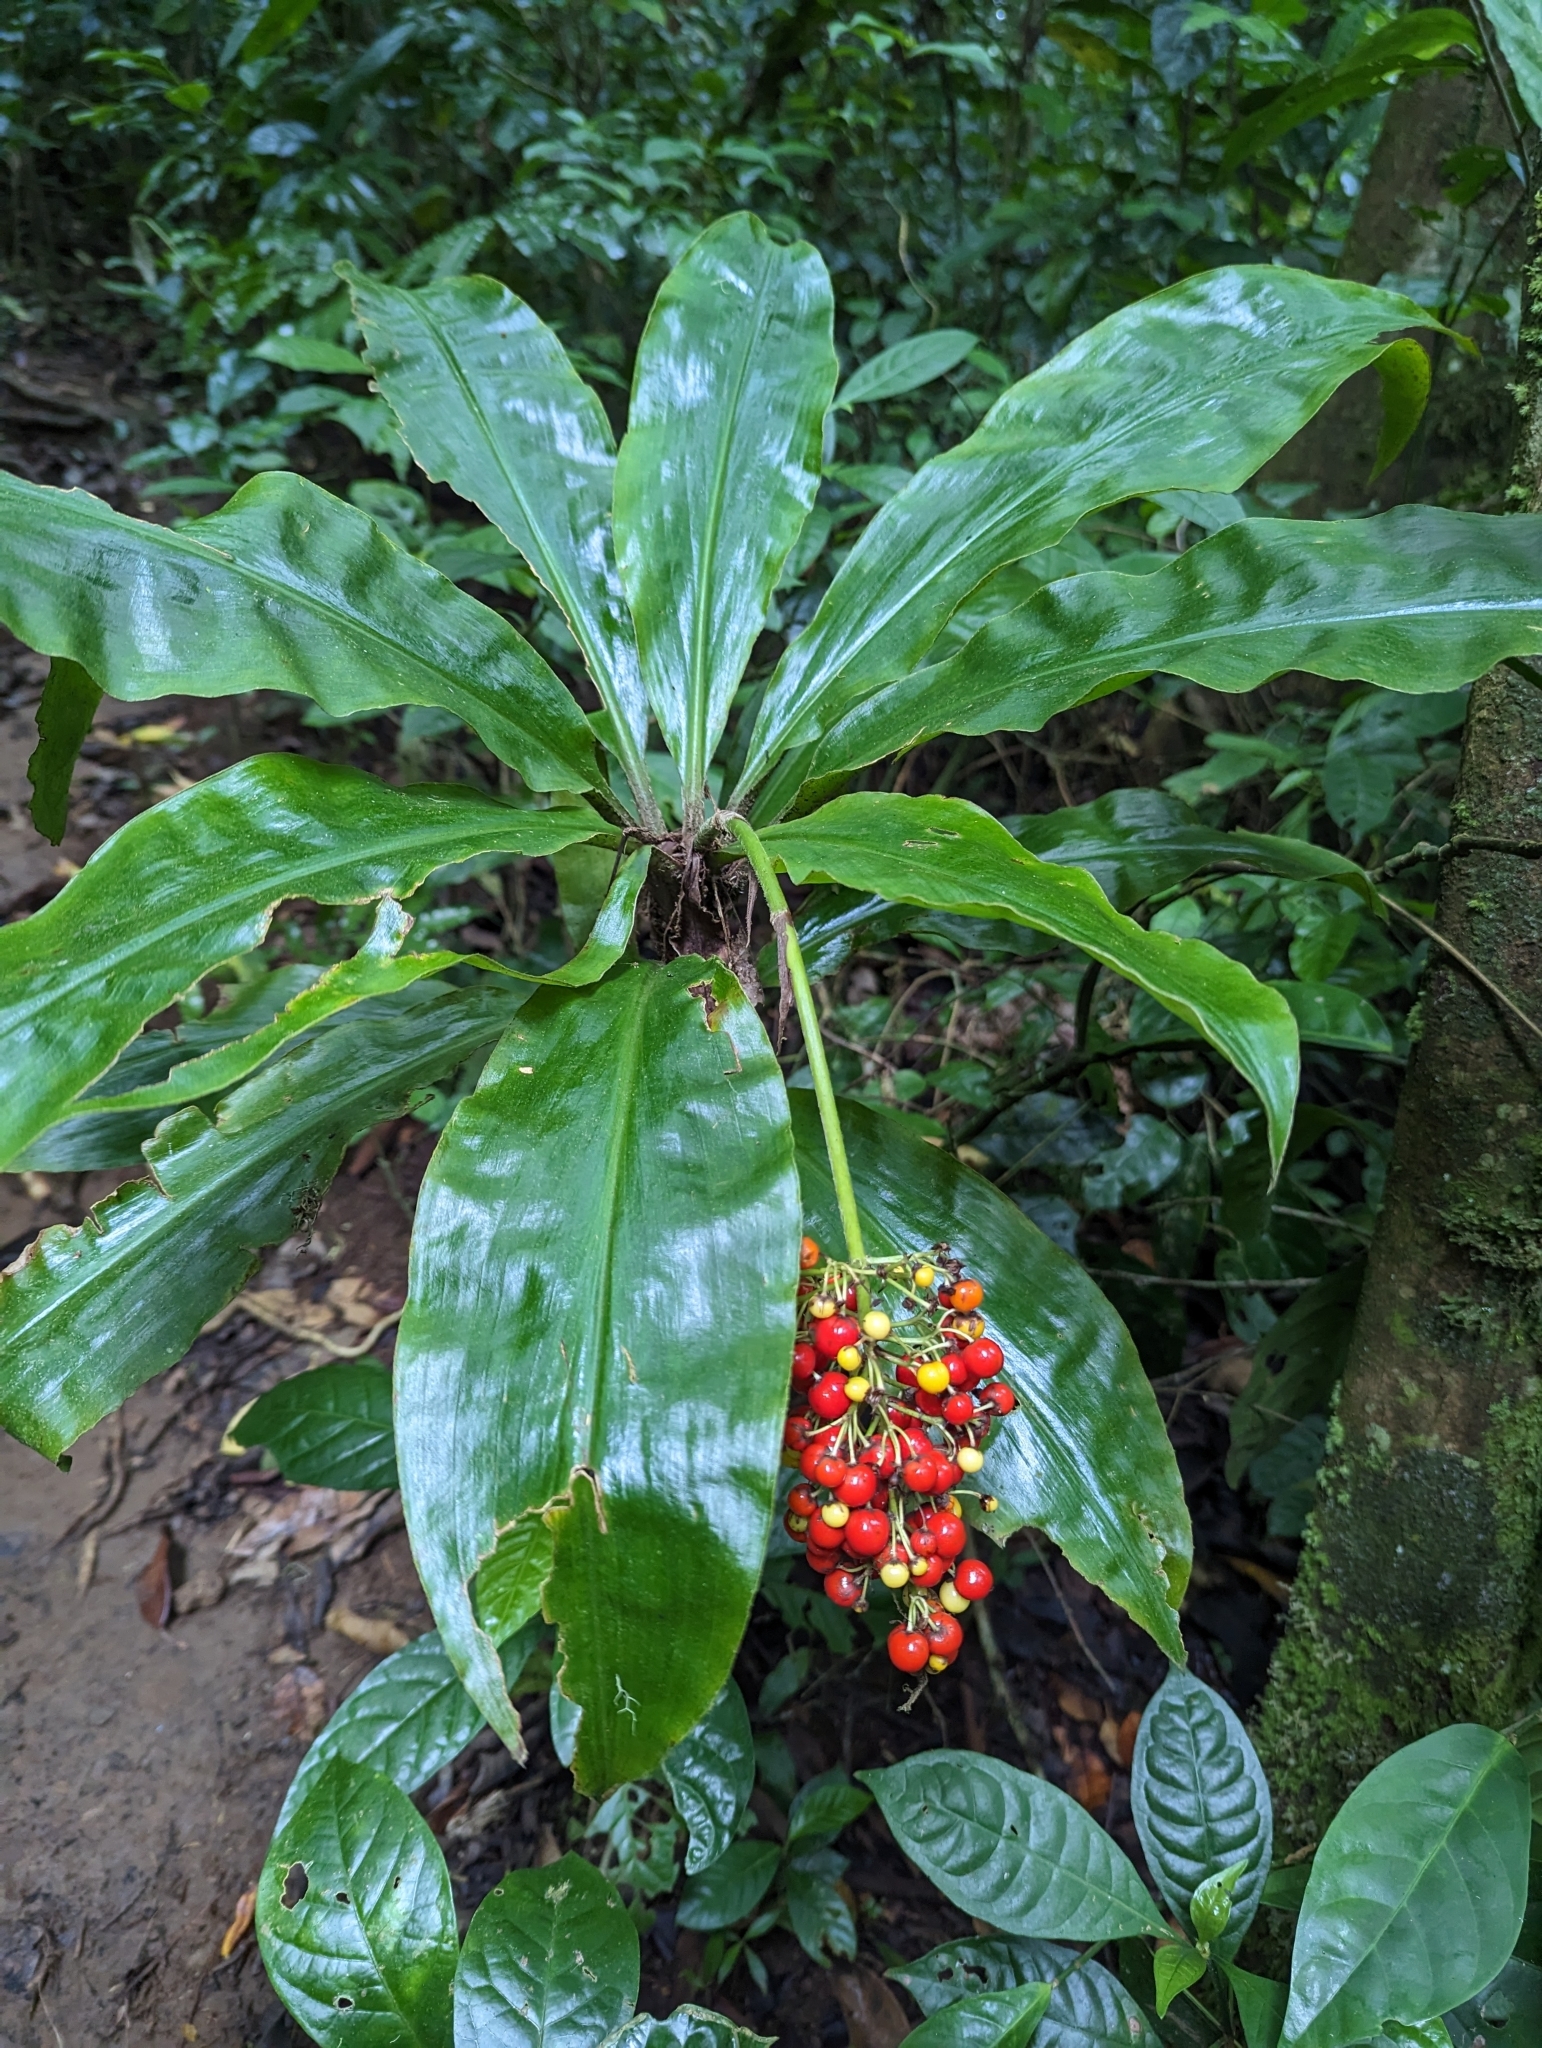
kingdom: Plantae
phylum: Tracheophyta
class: Liliopsida
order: Commelinales
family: Commelinaceae
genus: Palisota
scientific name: Palisota pedicellata
